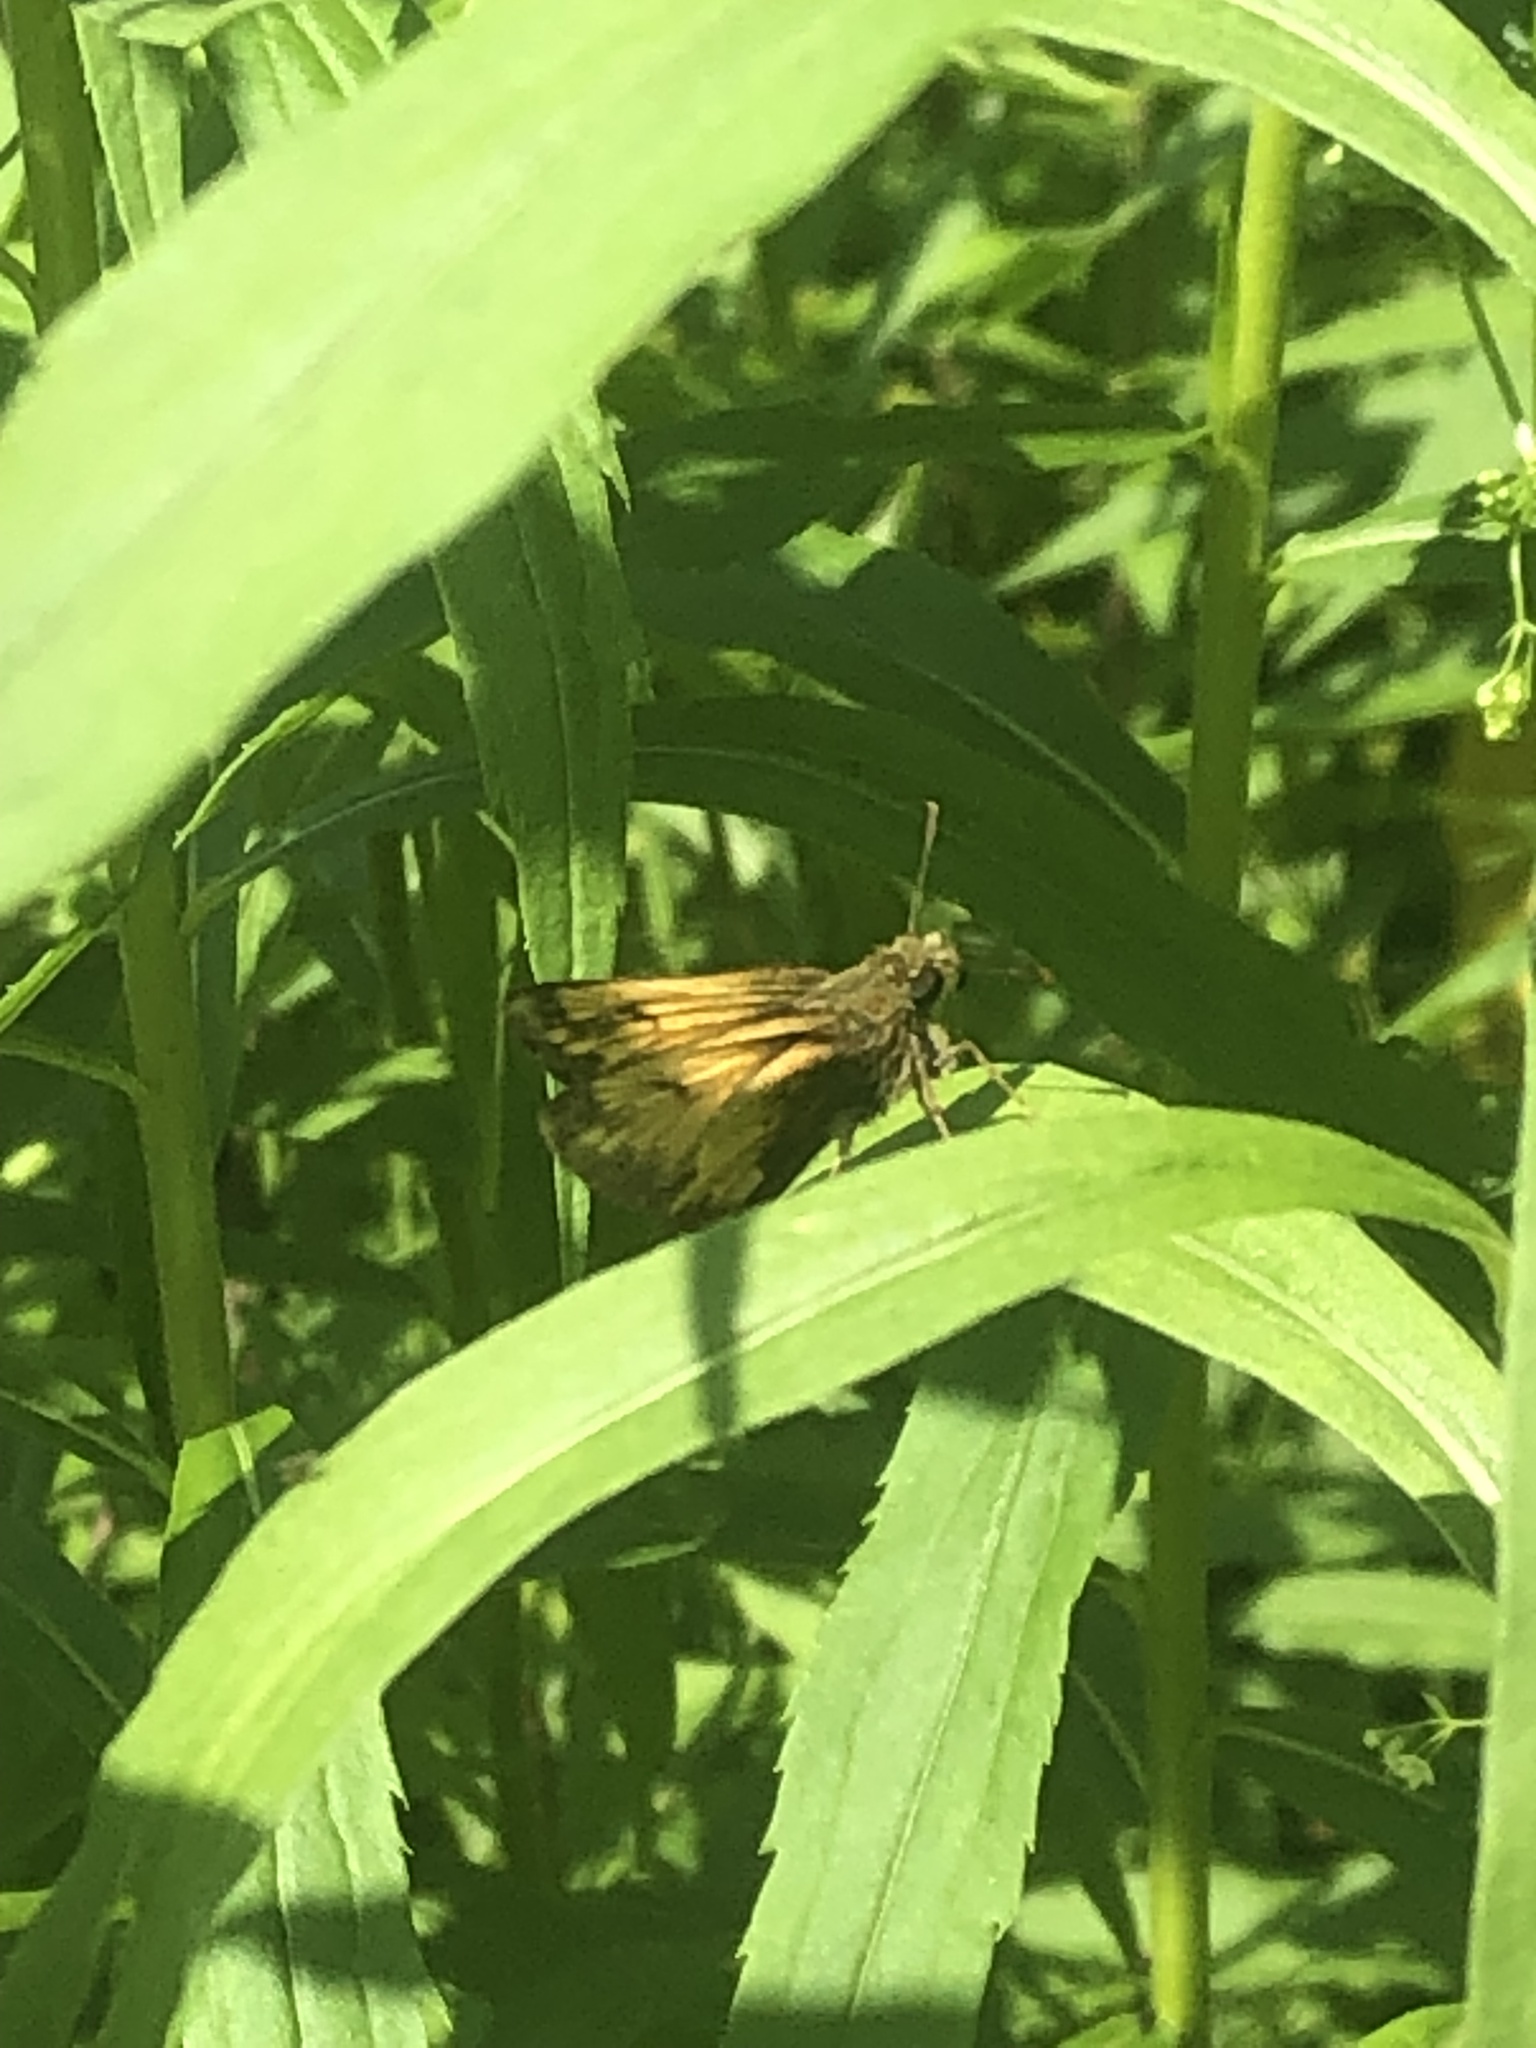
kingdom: Animalia
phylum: Arthropoda
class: Insecta
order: Lepidoptera
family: Hesperiidae
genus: Lon
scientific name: Lon hobomok
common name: Hobomok skipper
